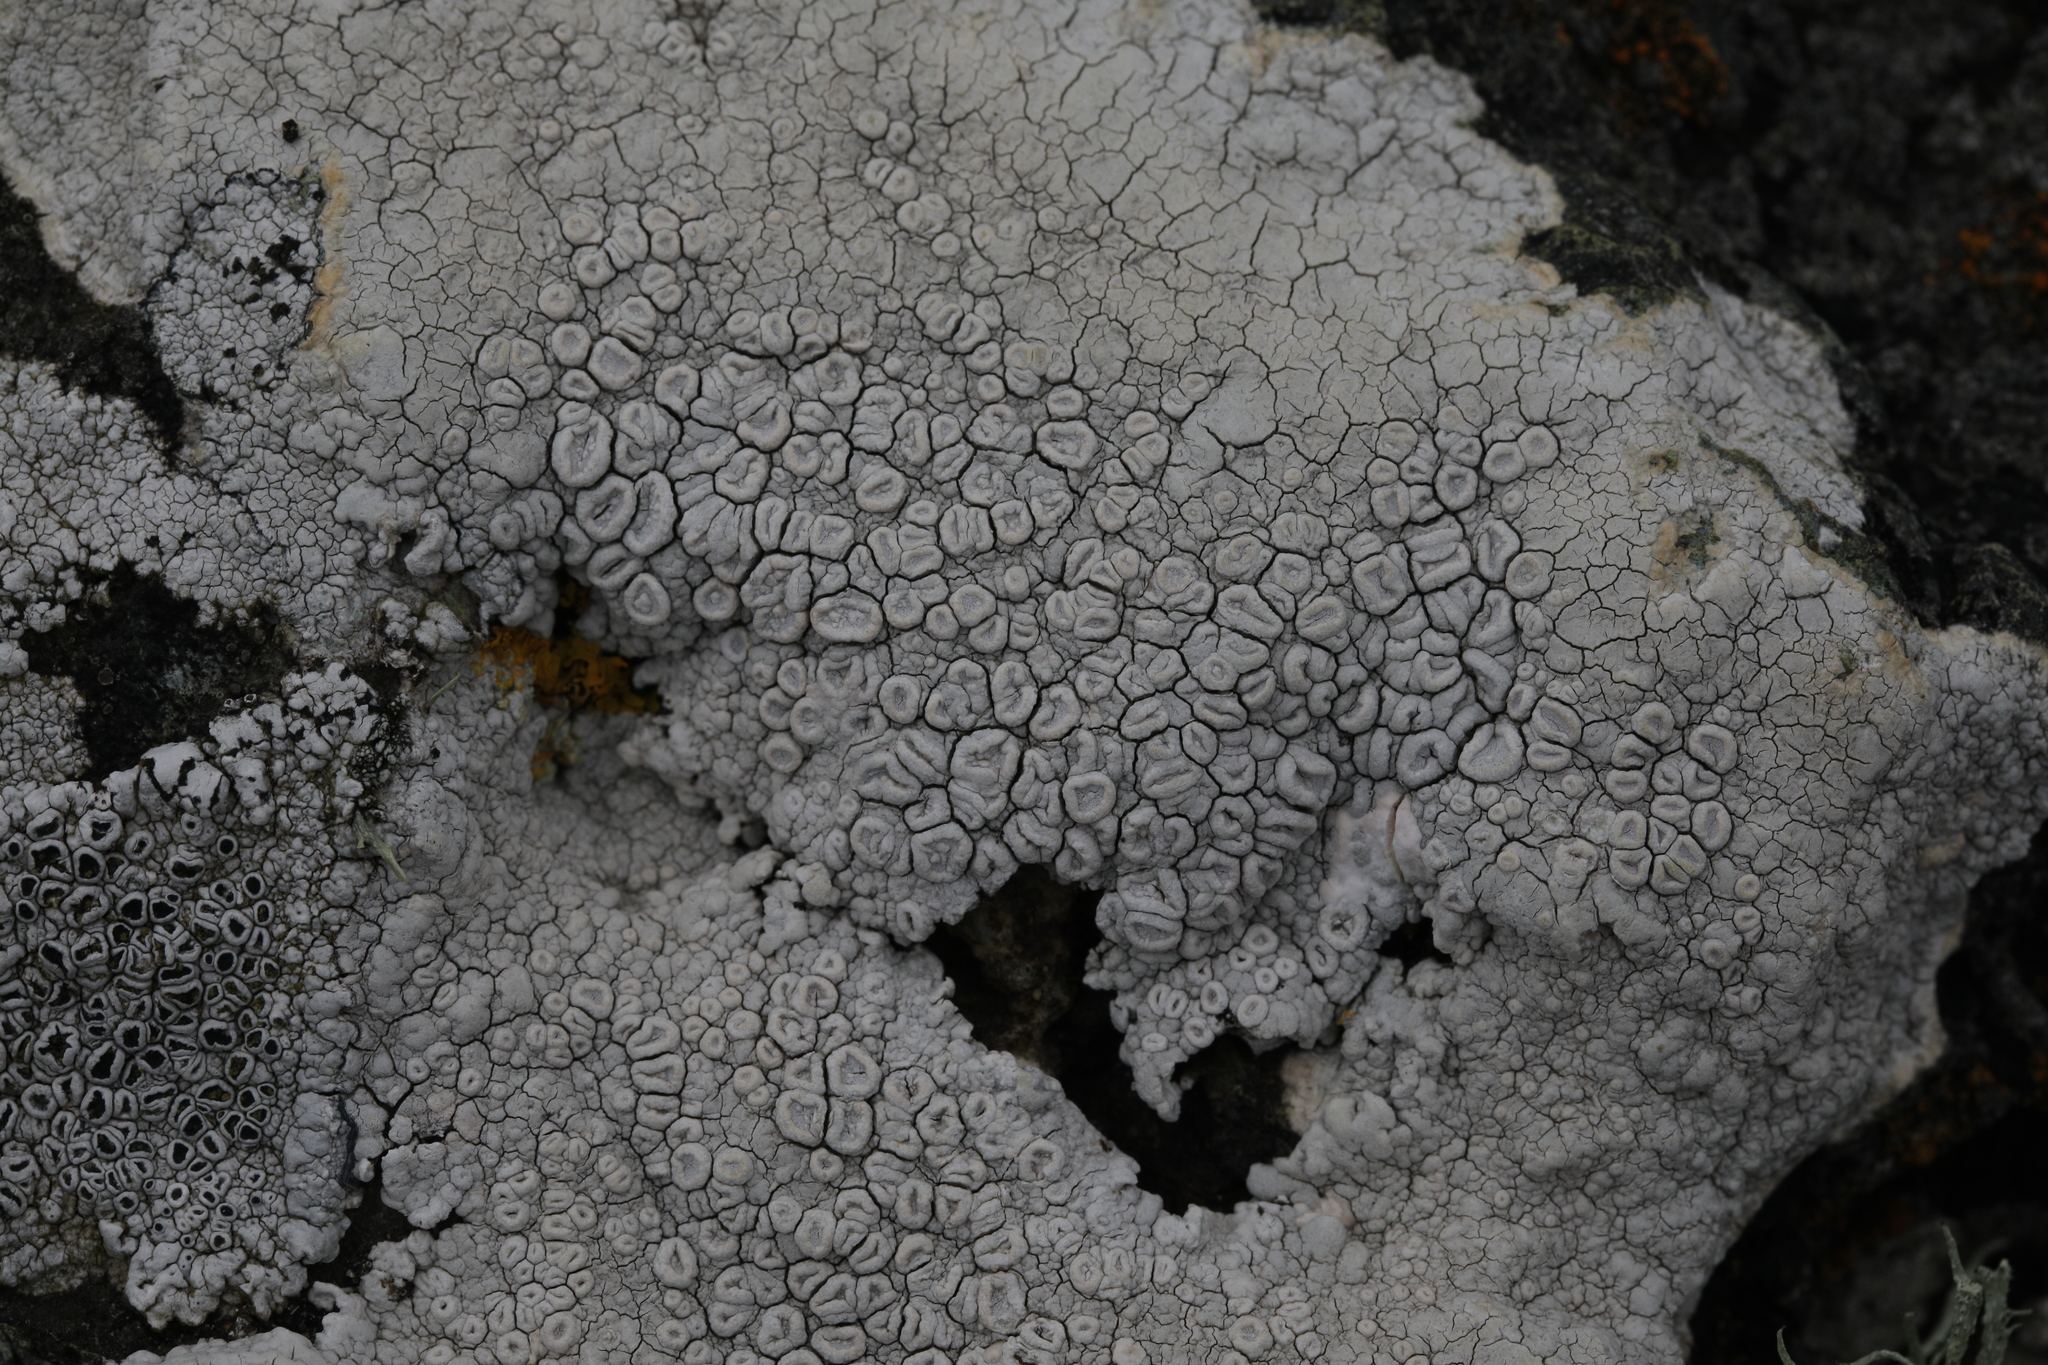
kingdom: Fungi
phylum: Ascomycota
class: Lecanoromycetes
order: Pertusariales
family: Ochrolechiaceae
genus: Ochrolechia
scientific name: Ochrolechia parella
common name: Crab's eye lichen
